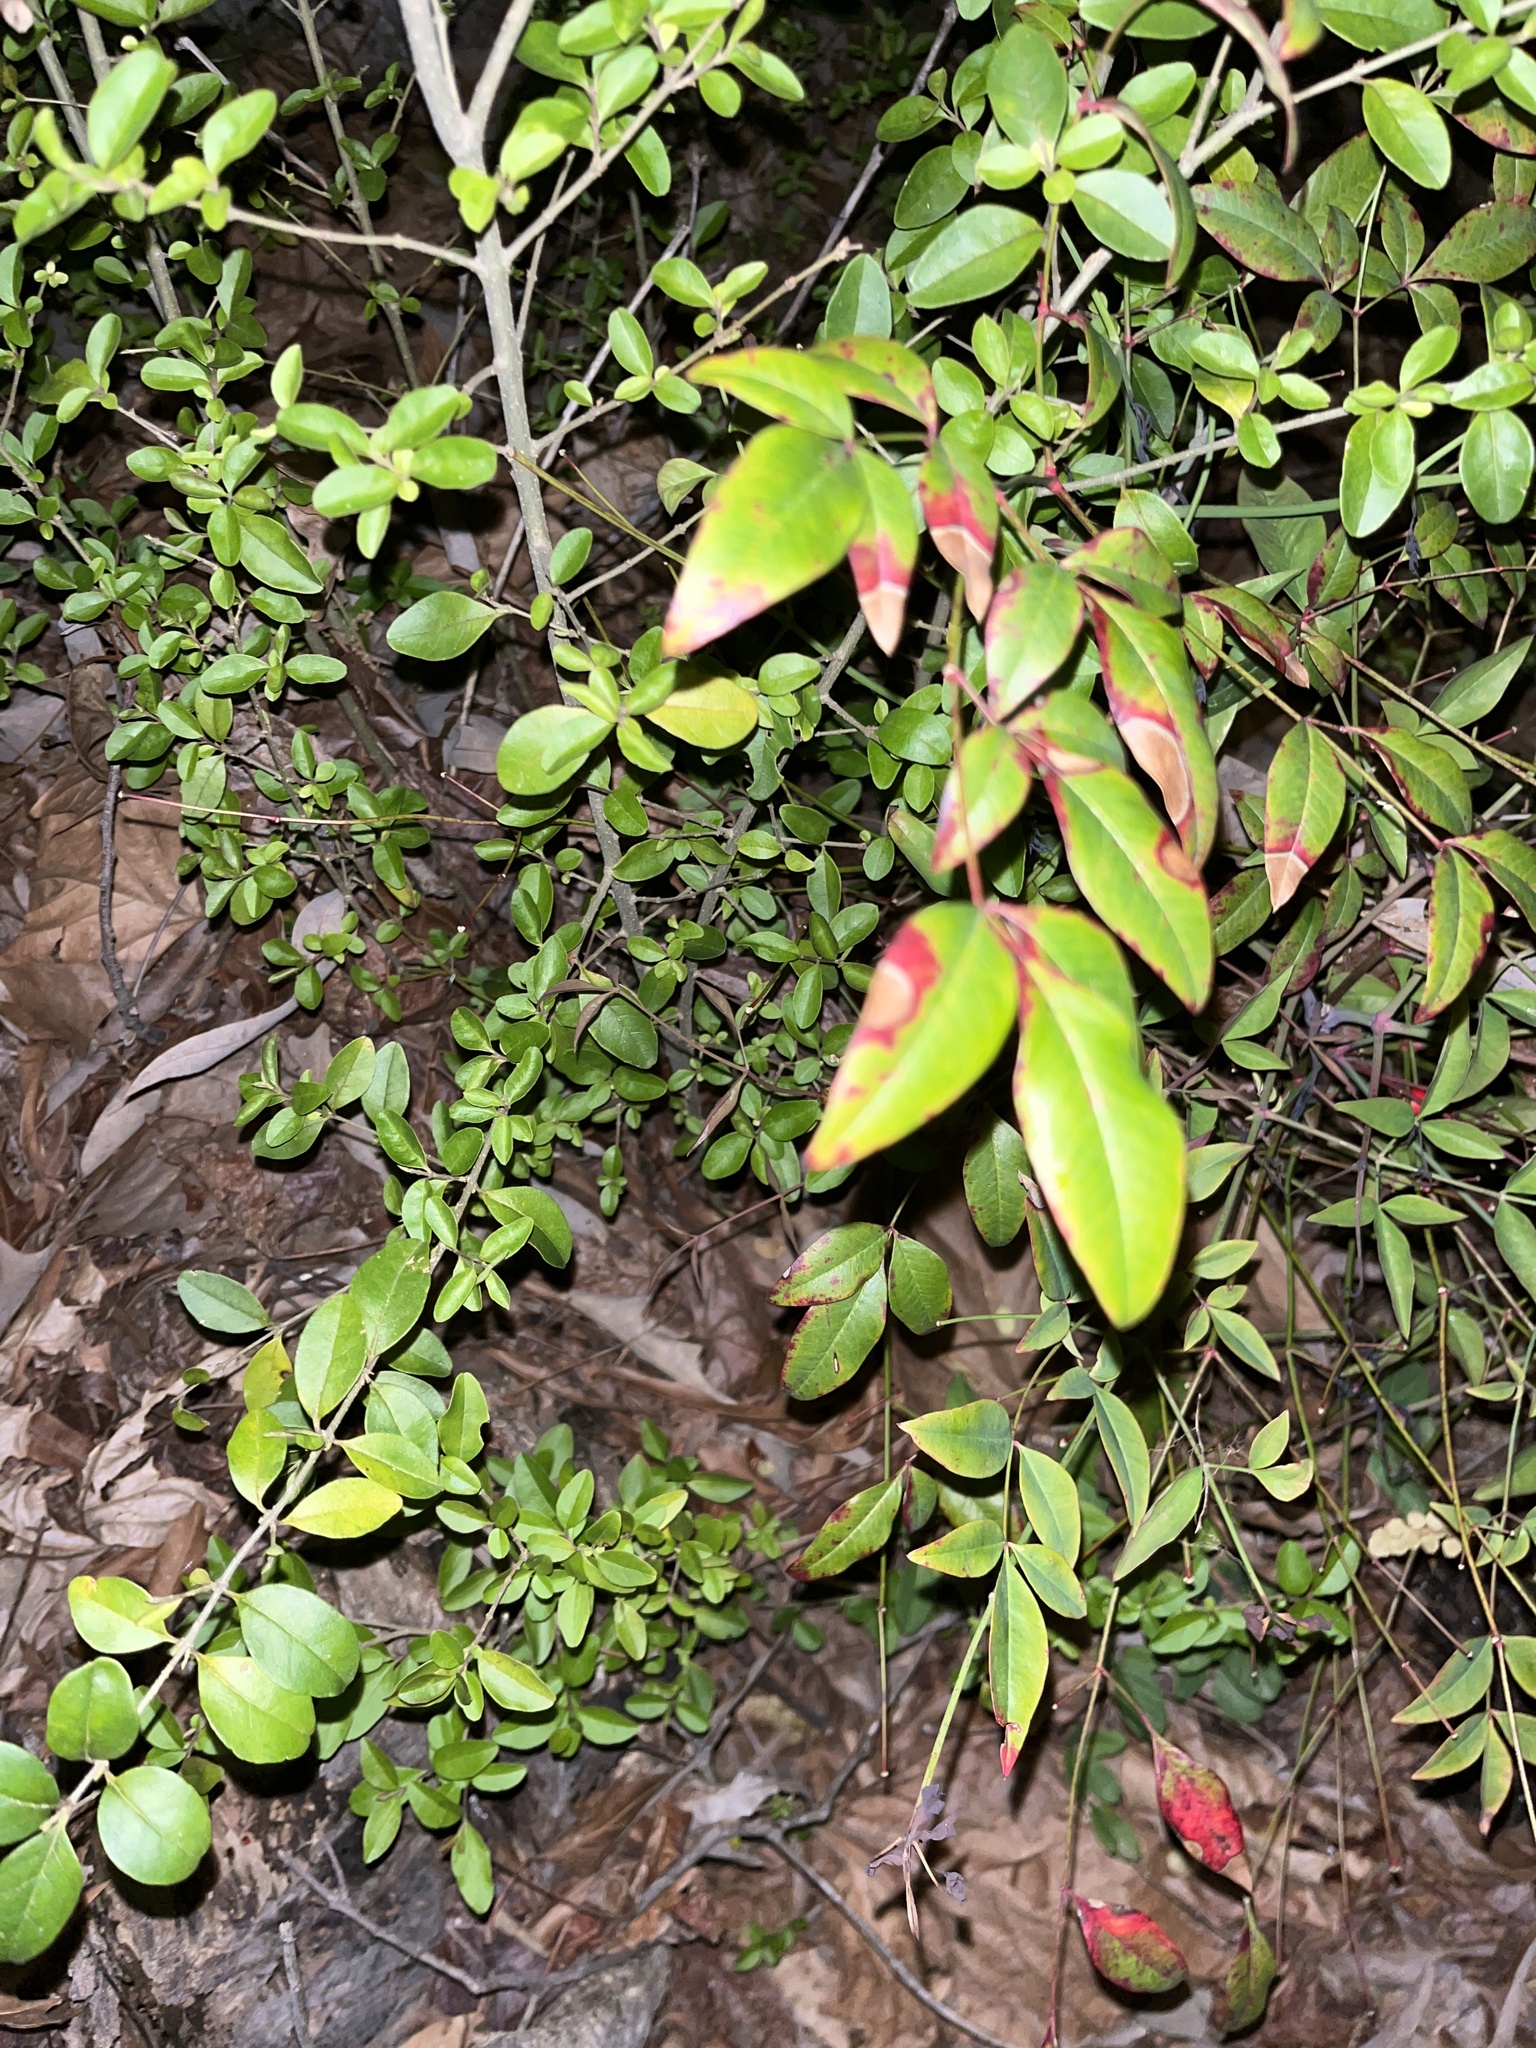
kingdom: Plantae
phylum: Tracheophyta
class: Magnoliopsida
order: Ranunculales
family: Berberidaceae
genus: Nandina
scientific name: Nandina domestica
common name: Sacred bamboo
